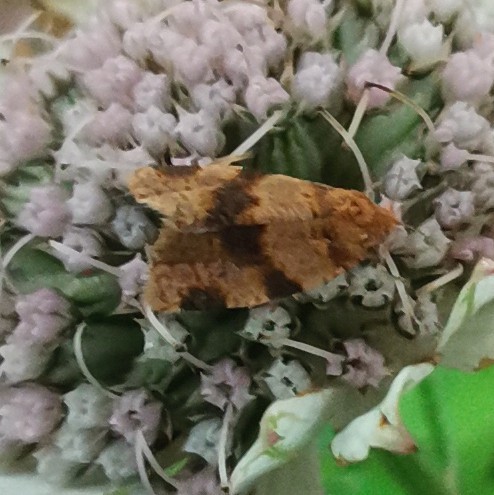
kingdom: Animalia
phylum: Arthropoda
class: Insecta
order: Lepidoptera
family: Tortricidae
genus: Epagoge
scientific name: Epagoge grotiana
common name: Brown-barred twist
